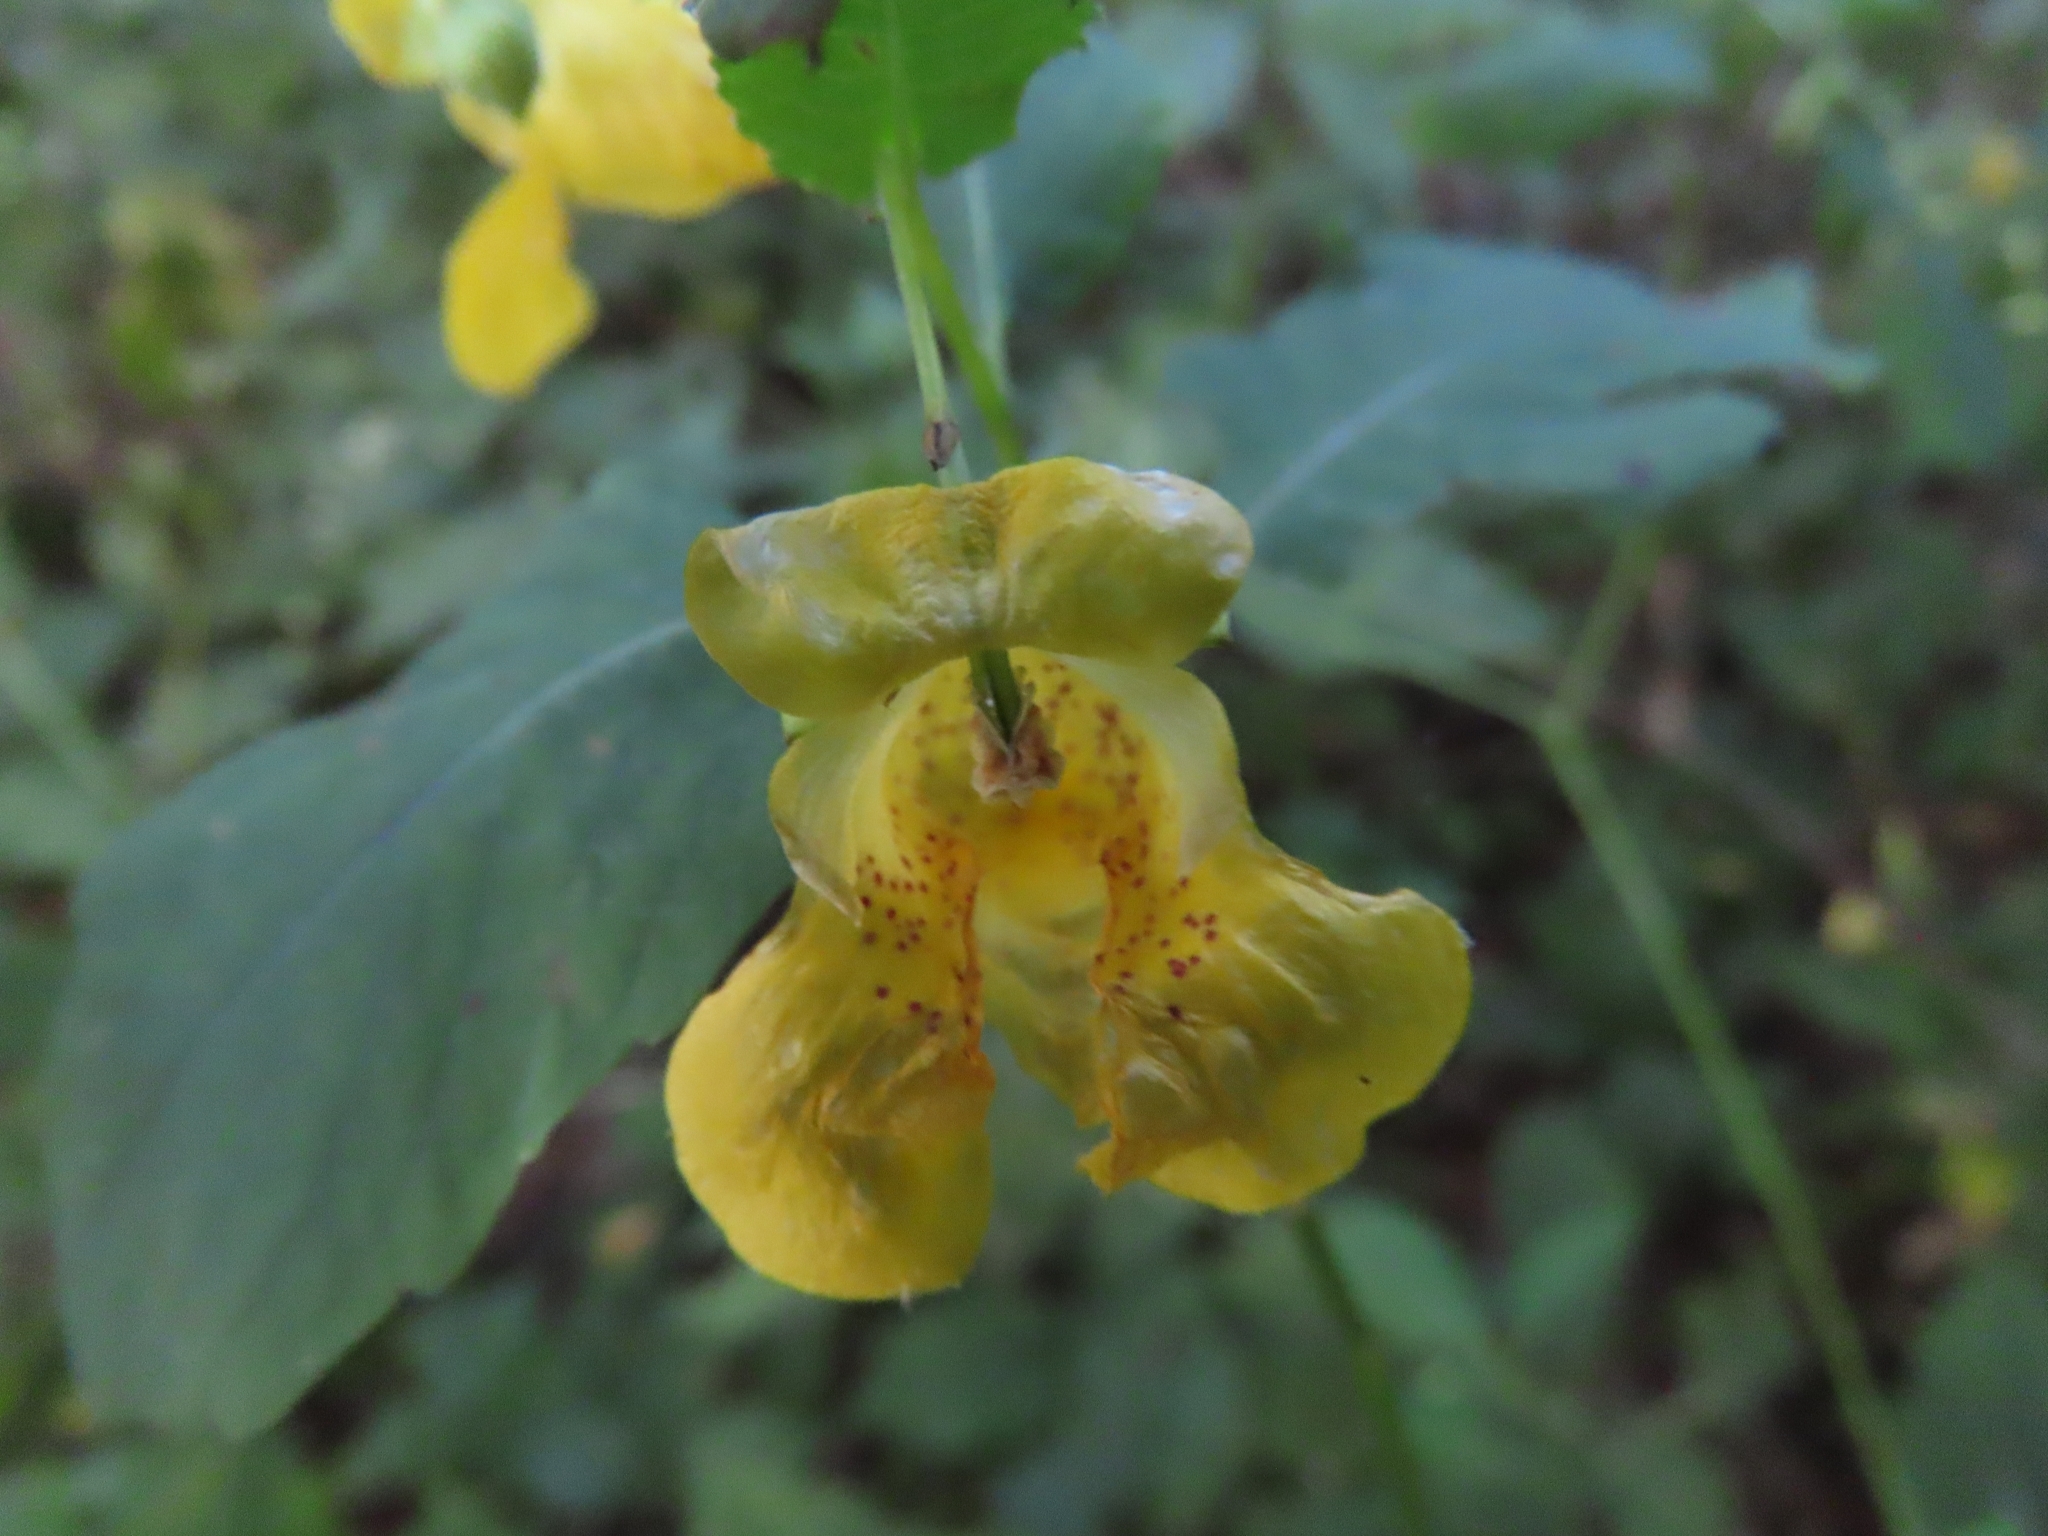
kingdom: Plantae
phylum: Tracheophyta
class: Magnoliopsida
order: Ericales
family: Balsaminaceae
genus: Impatiens
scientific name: Impatiens pallida
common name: Pale snapweed
